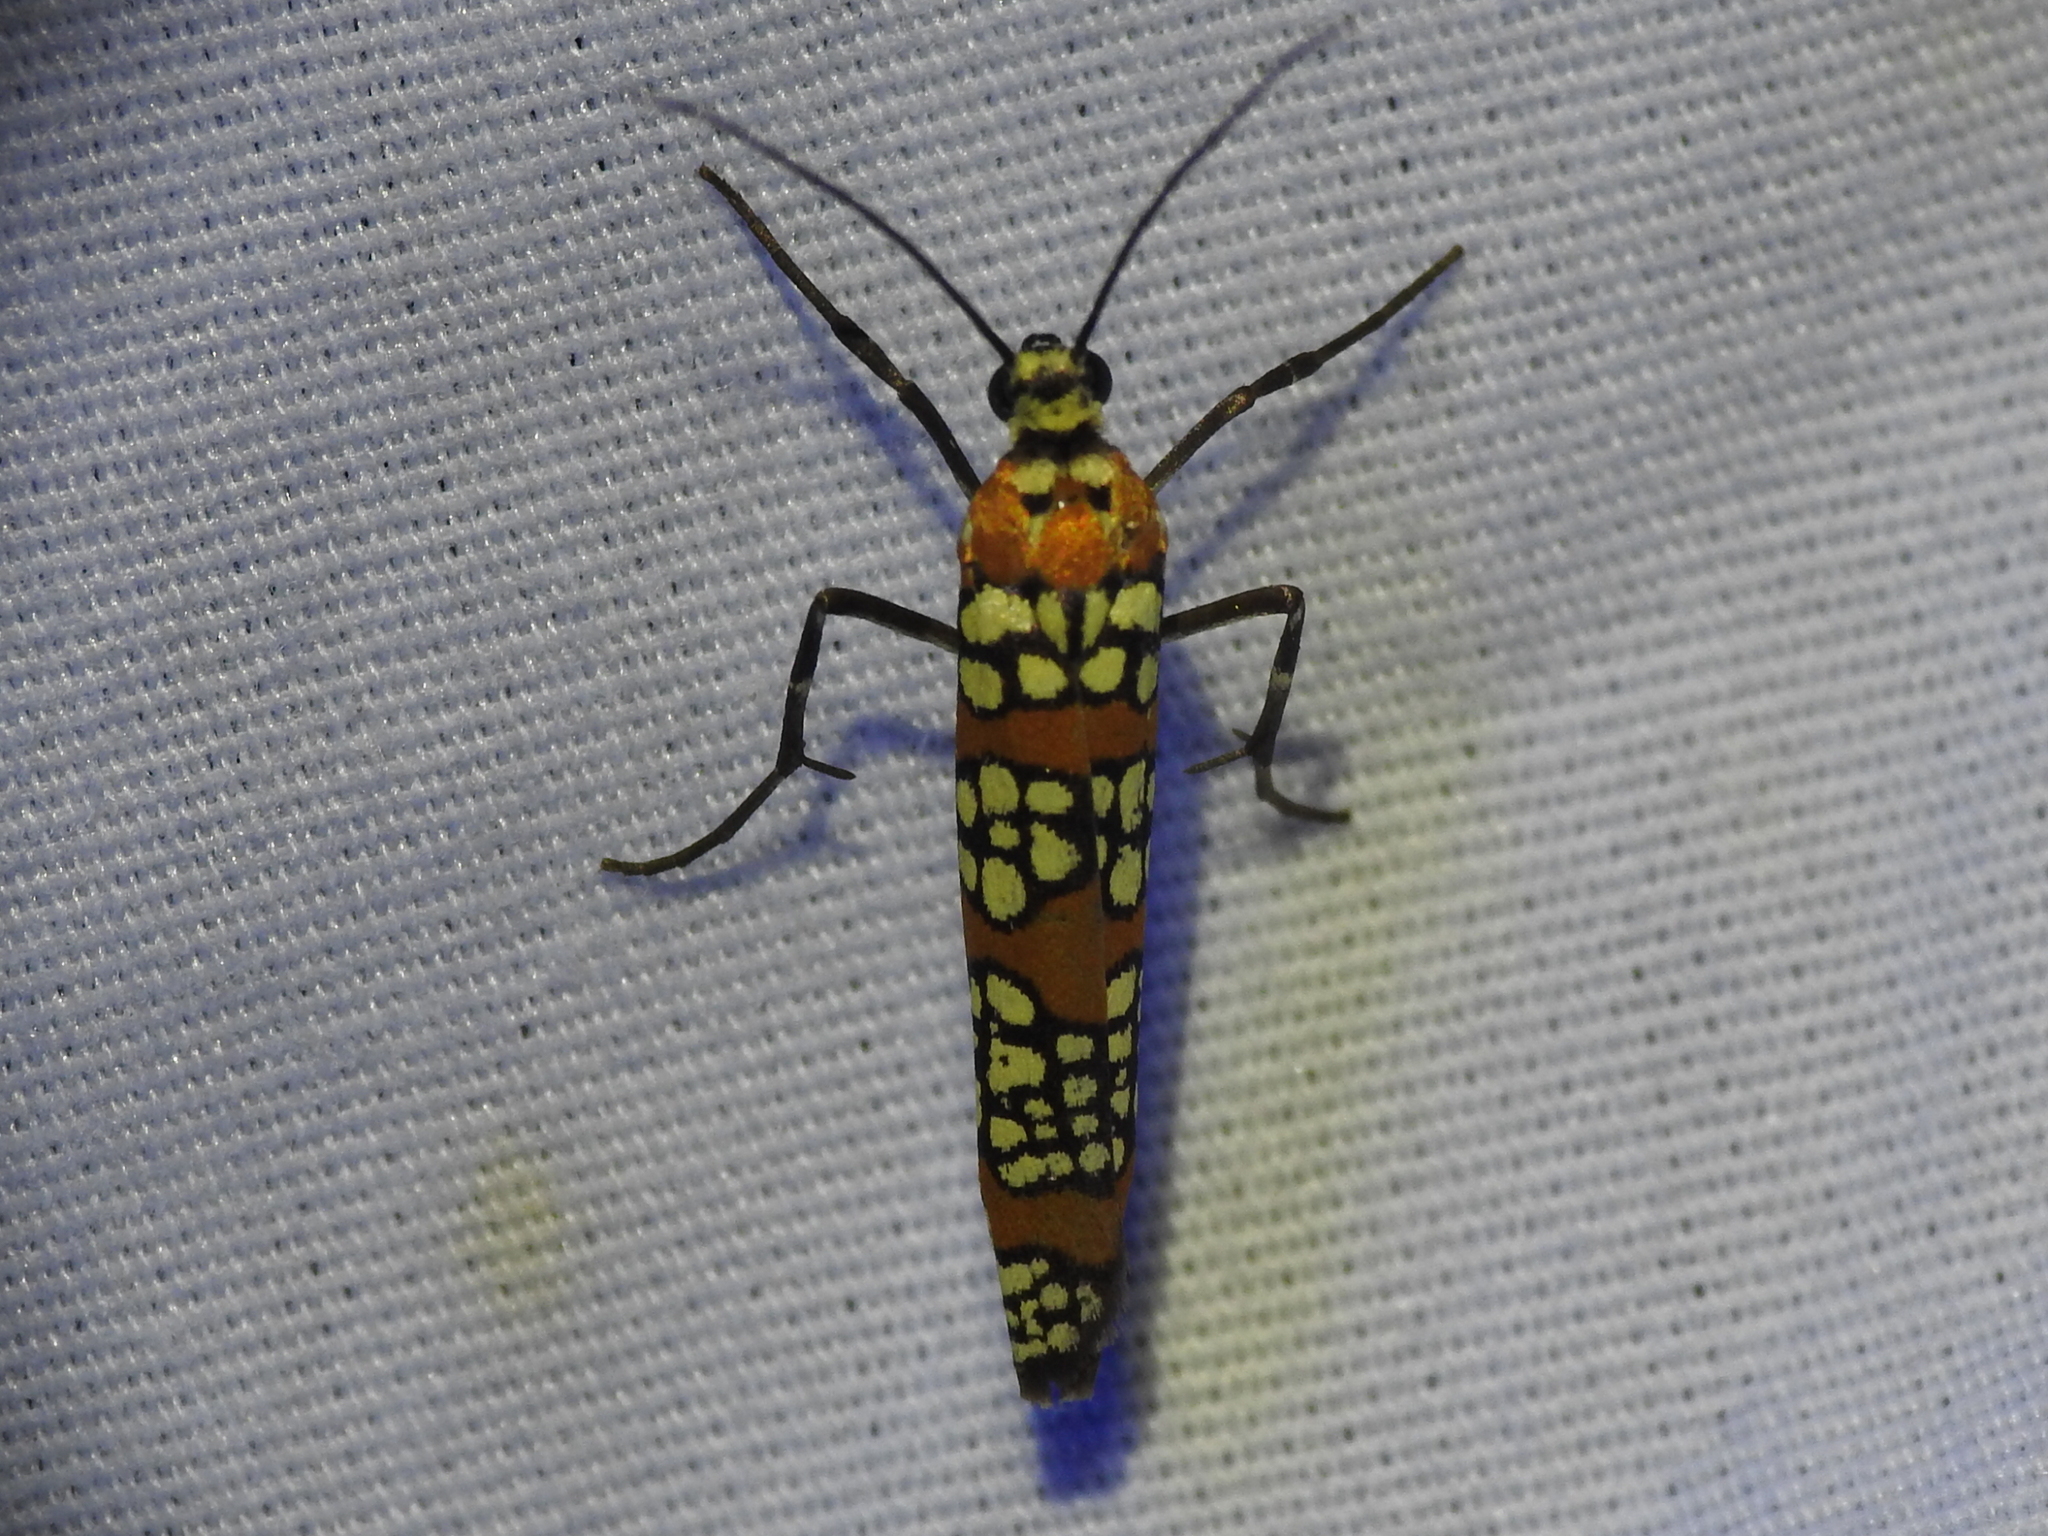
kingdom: Animalia
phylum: Arthropoda
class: Insecta
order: Lepidoptera
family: Attevidae
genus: Atteva
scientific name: Atteva punctella
